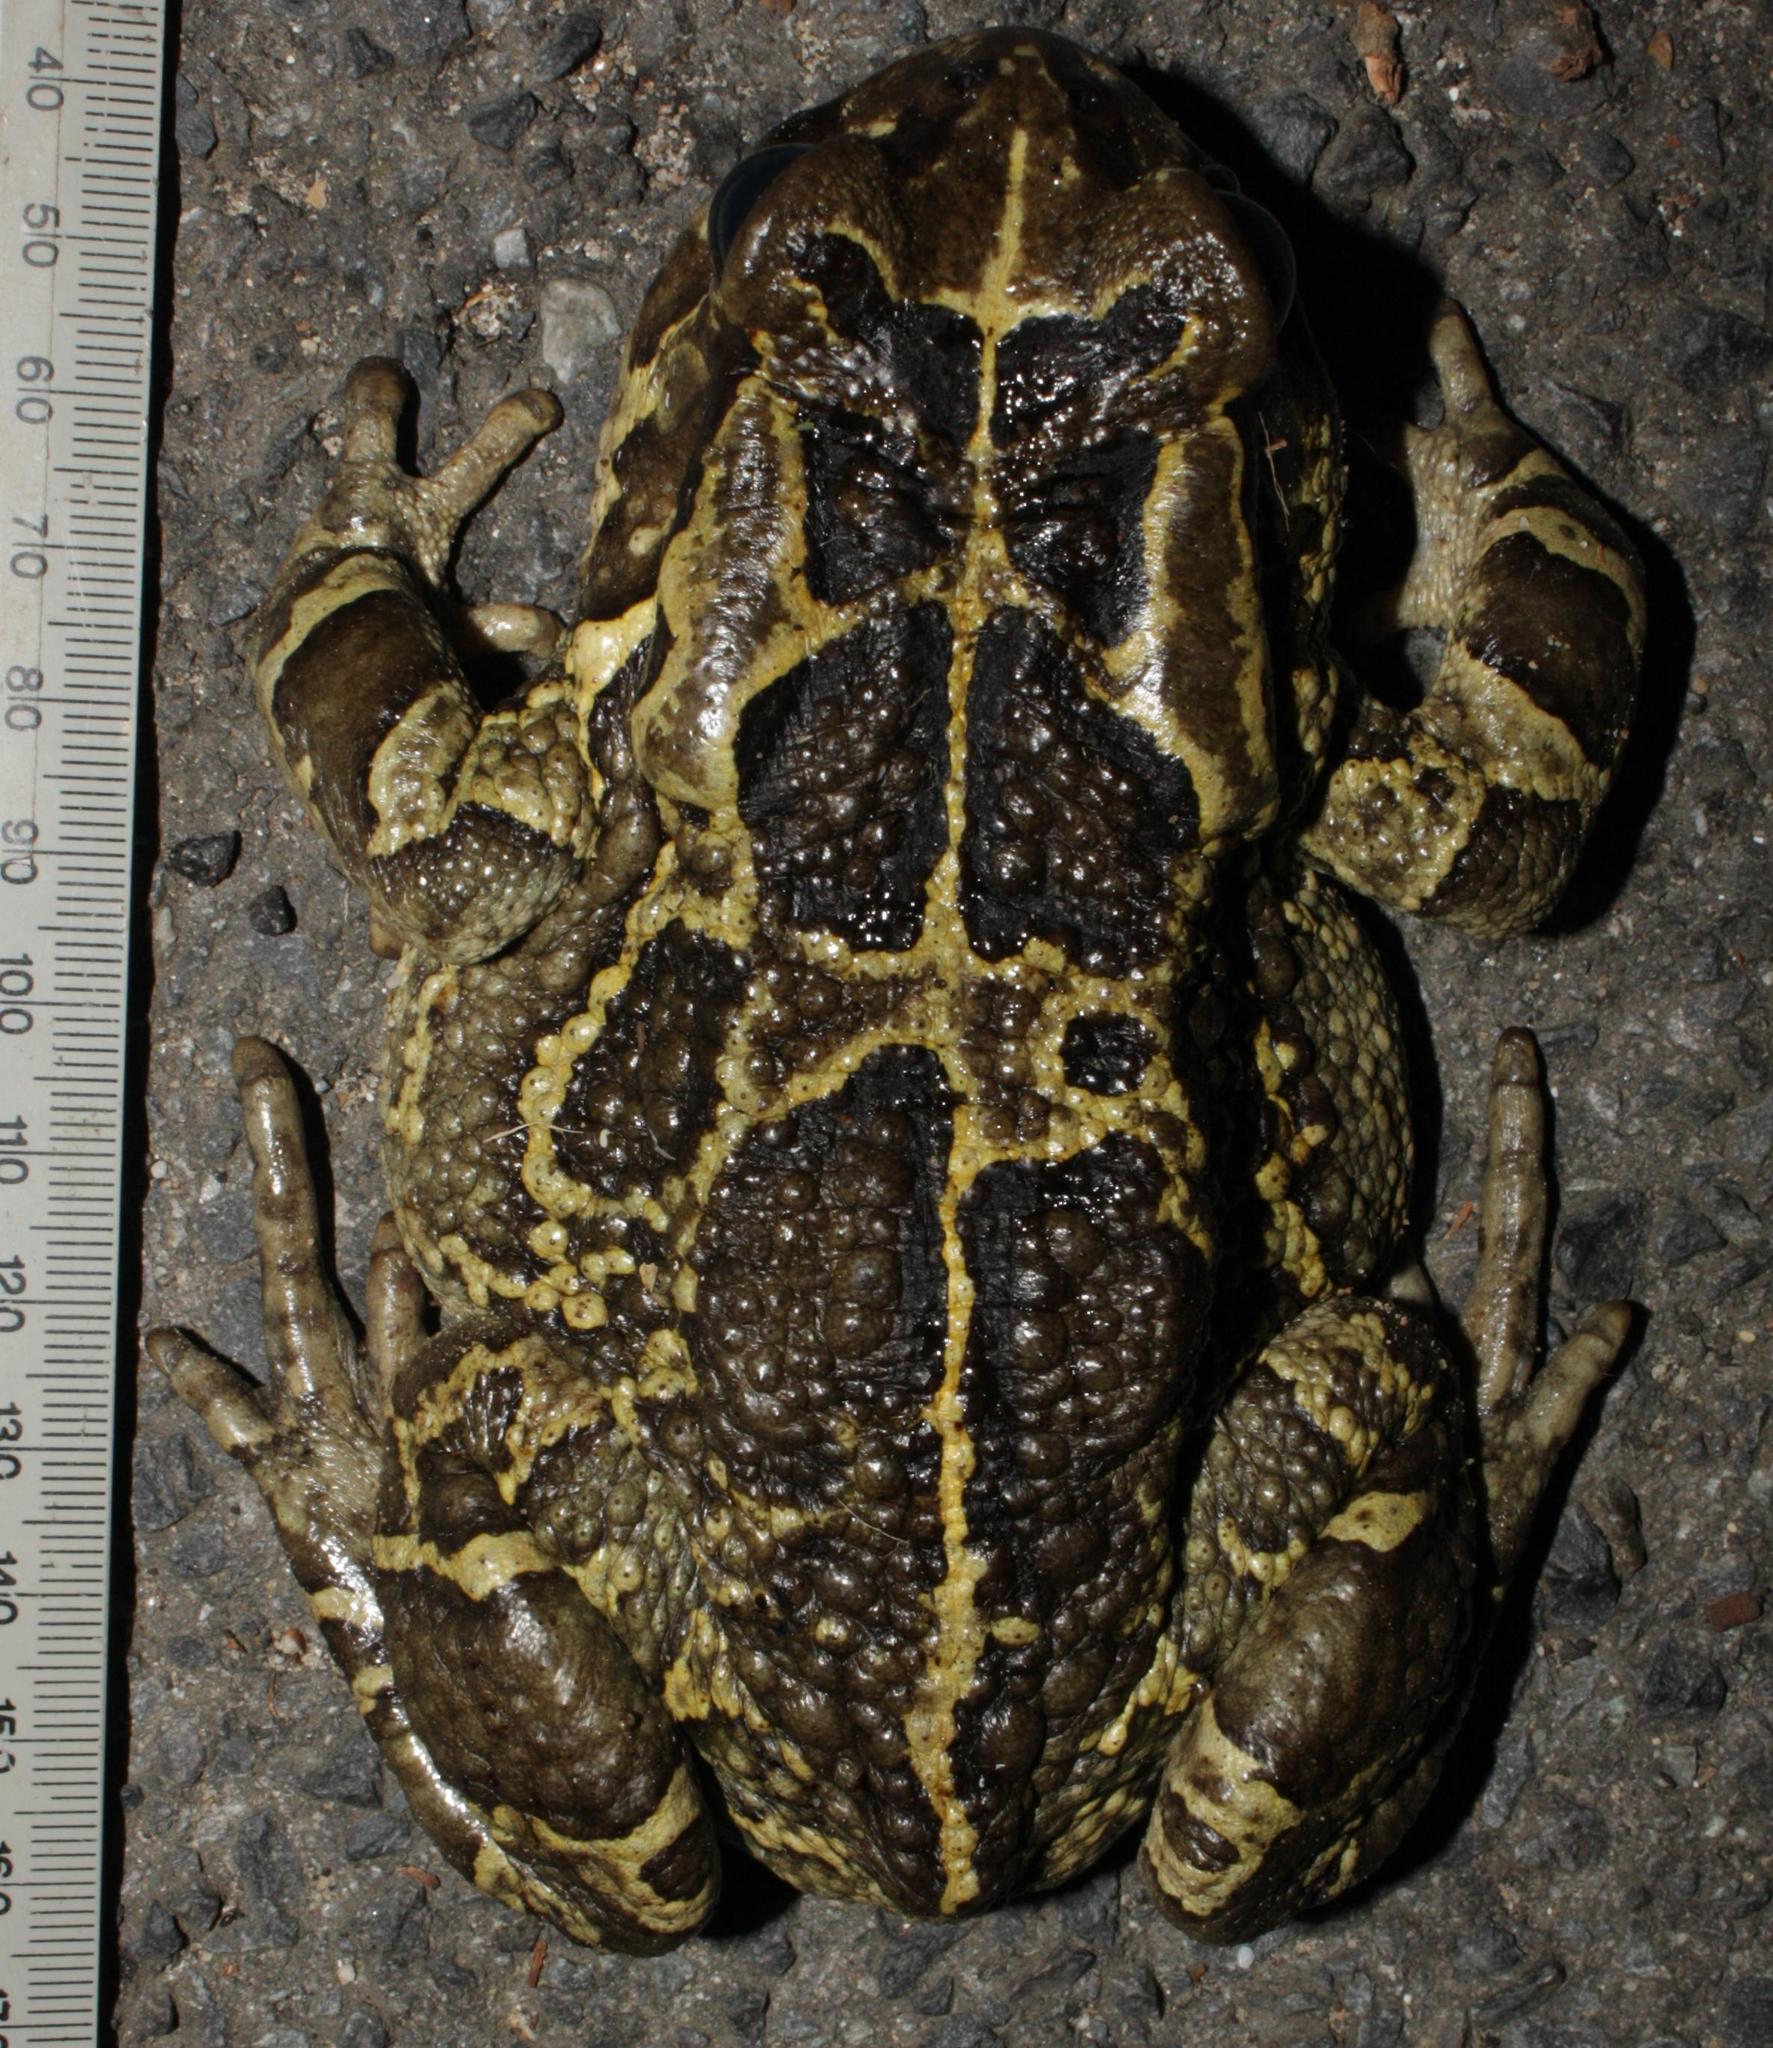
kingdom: Animalia
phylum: Chordata
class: Amphibia
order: Anura
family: Bufonidae
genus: Sclerophrys
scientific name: Sclerophrys pantherina
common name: Panther toad
